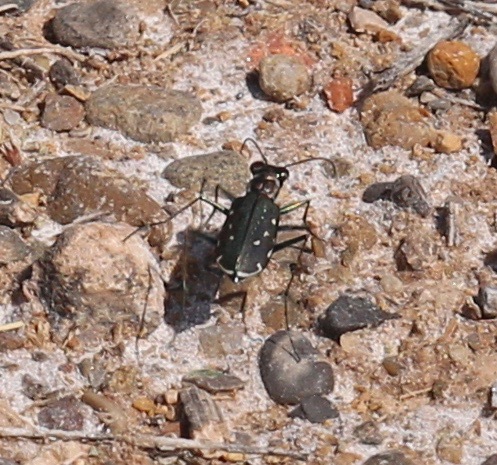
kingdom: Animalia
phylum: Arthropoda
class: Insecta
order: Coleoptera
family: Carabidae
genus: Cicindela
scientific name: Cicindela punctulata
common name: Punctured tiger beetle
